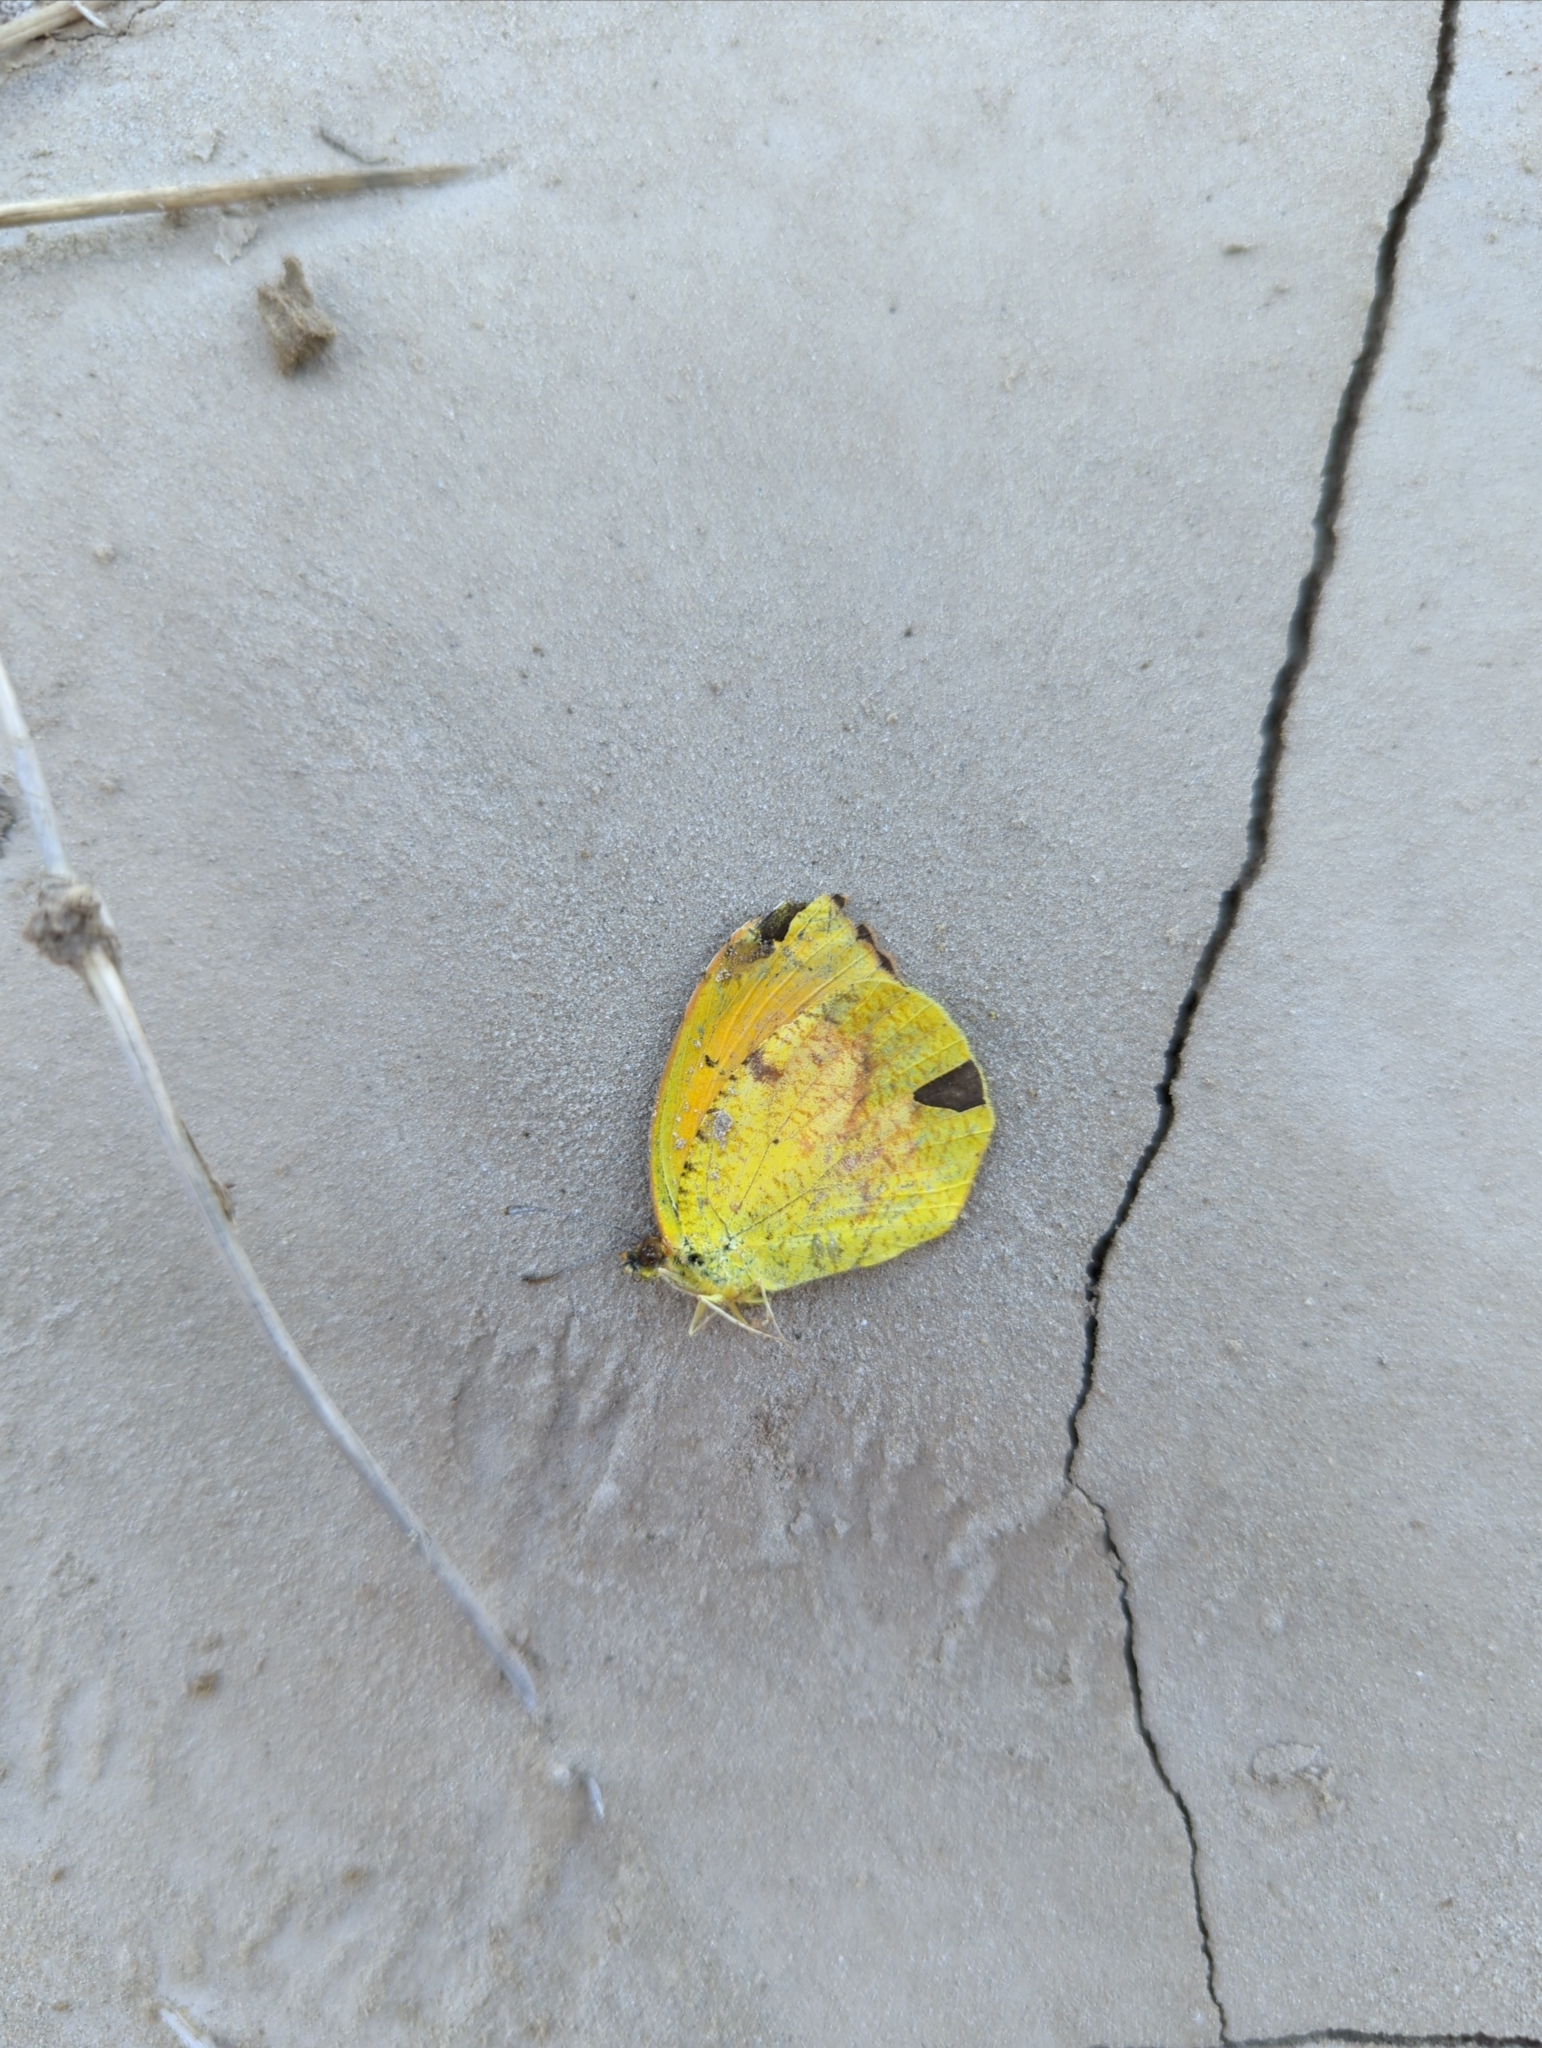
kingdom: Animalia
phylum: Arthropoda
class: Insecta
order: Lepidoptera
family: Pieridae
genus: Abaeis
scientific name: Abaeis nicippe
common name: Sleepy orange
